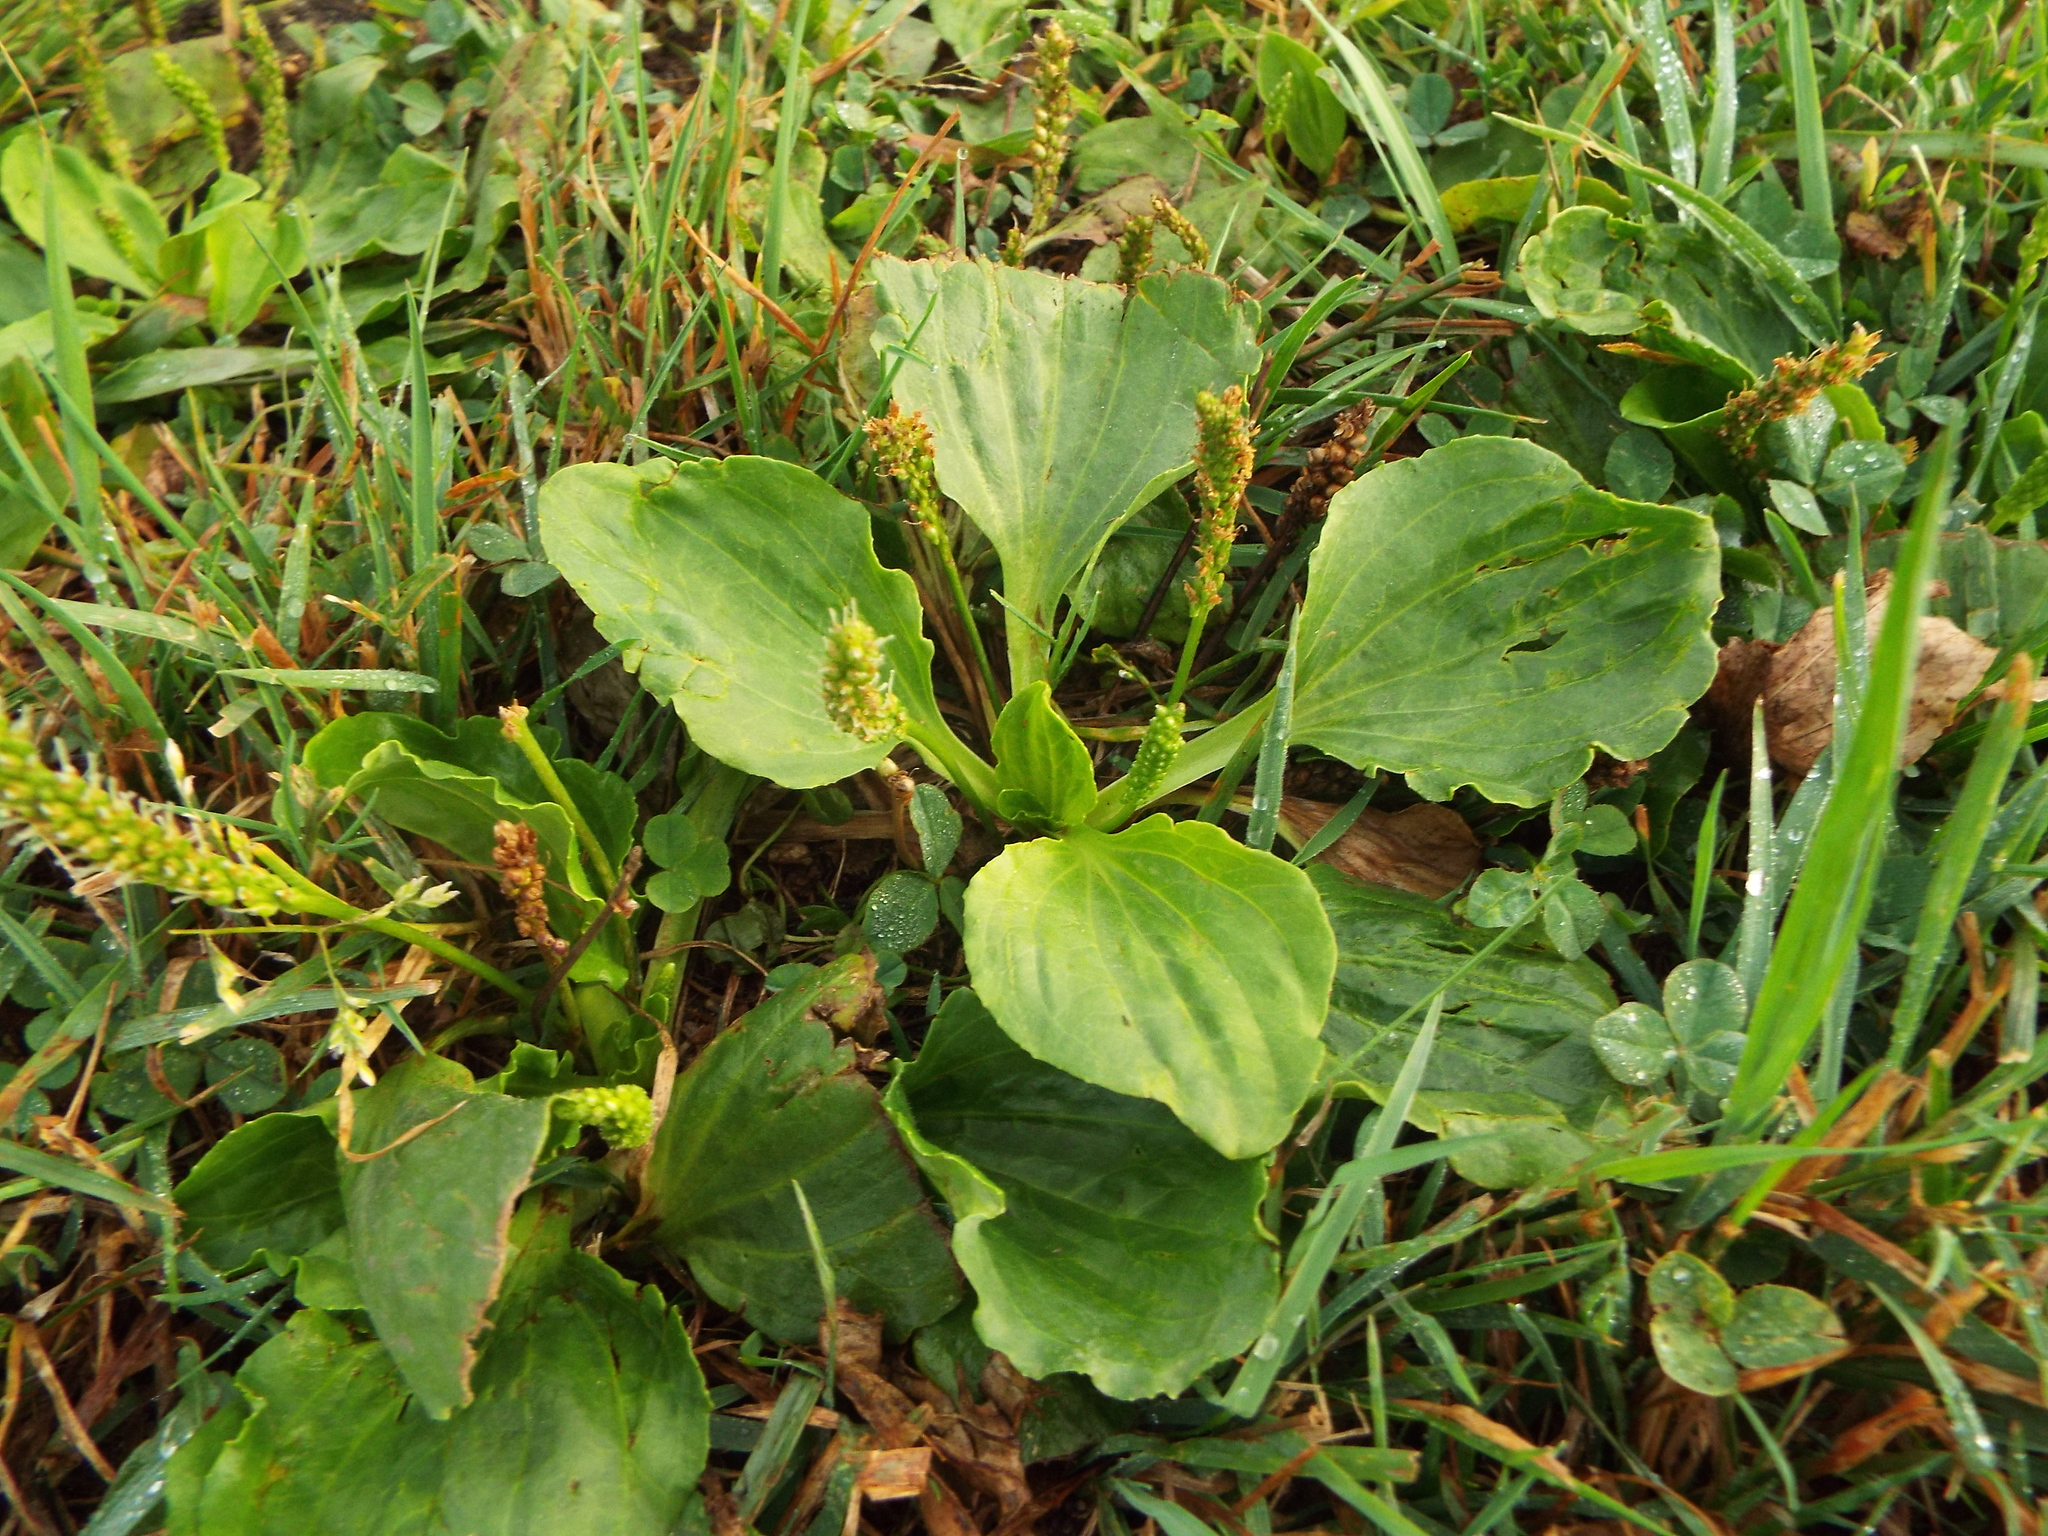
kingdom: Plantae
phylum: Tracheophyta
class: Magnoliopsida
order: Lamiales
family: Plantaginaceae
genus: Plantago
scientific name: Plantago major
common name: Common plantain
